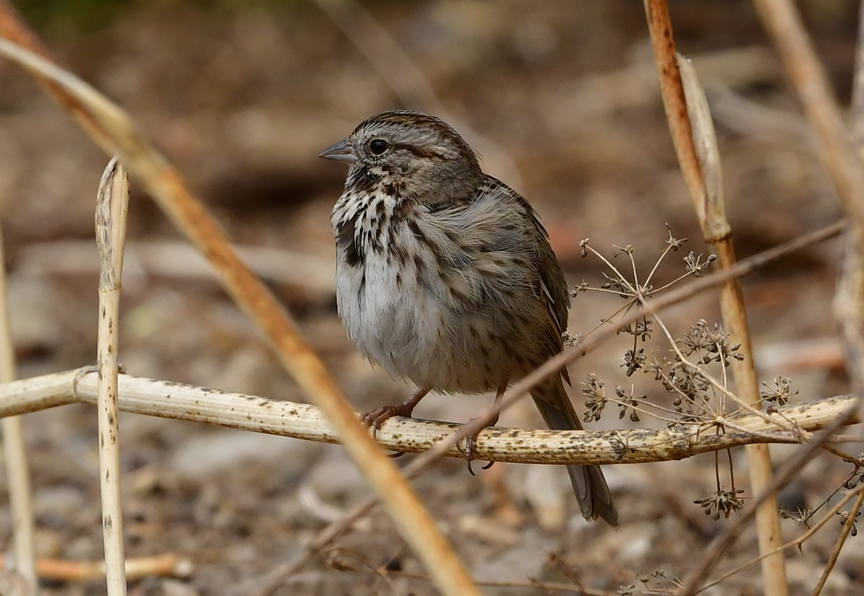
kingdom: Animalia
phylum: Chordata
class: Aves
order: Passeriformes
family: Passerellidae
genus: Melospiza
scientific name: Melospiza melodia
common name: Song sparrow
